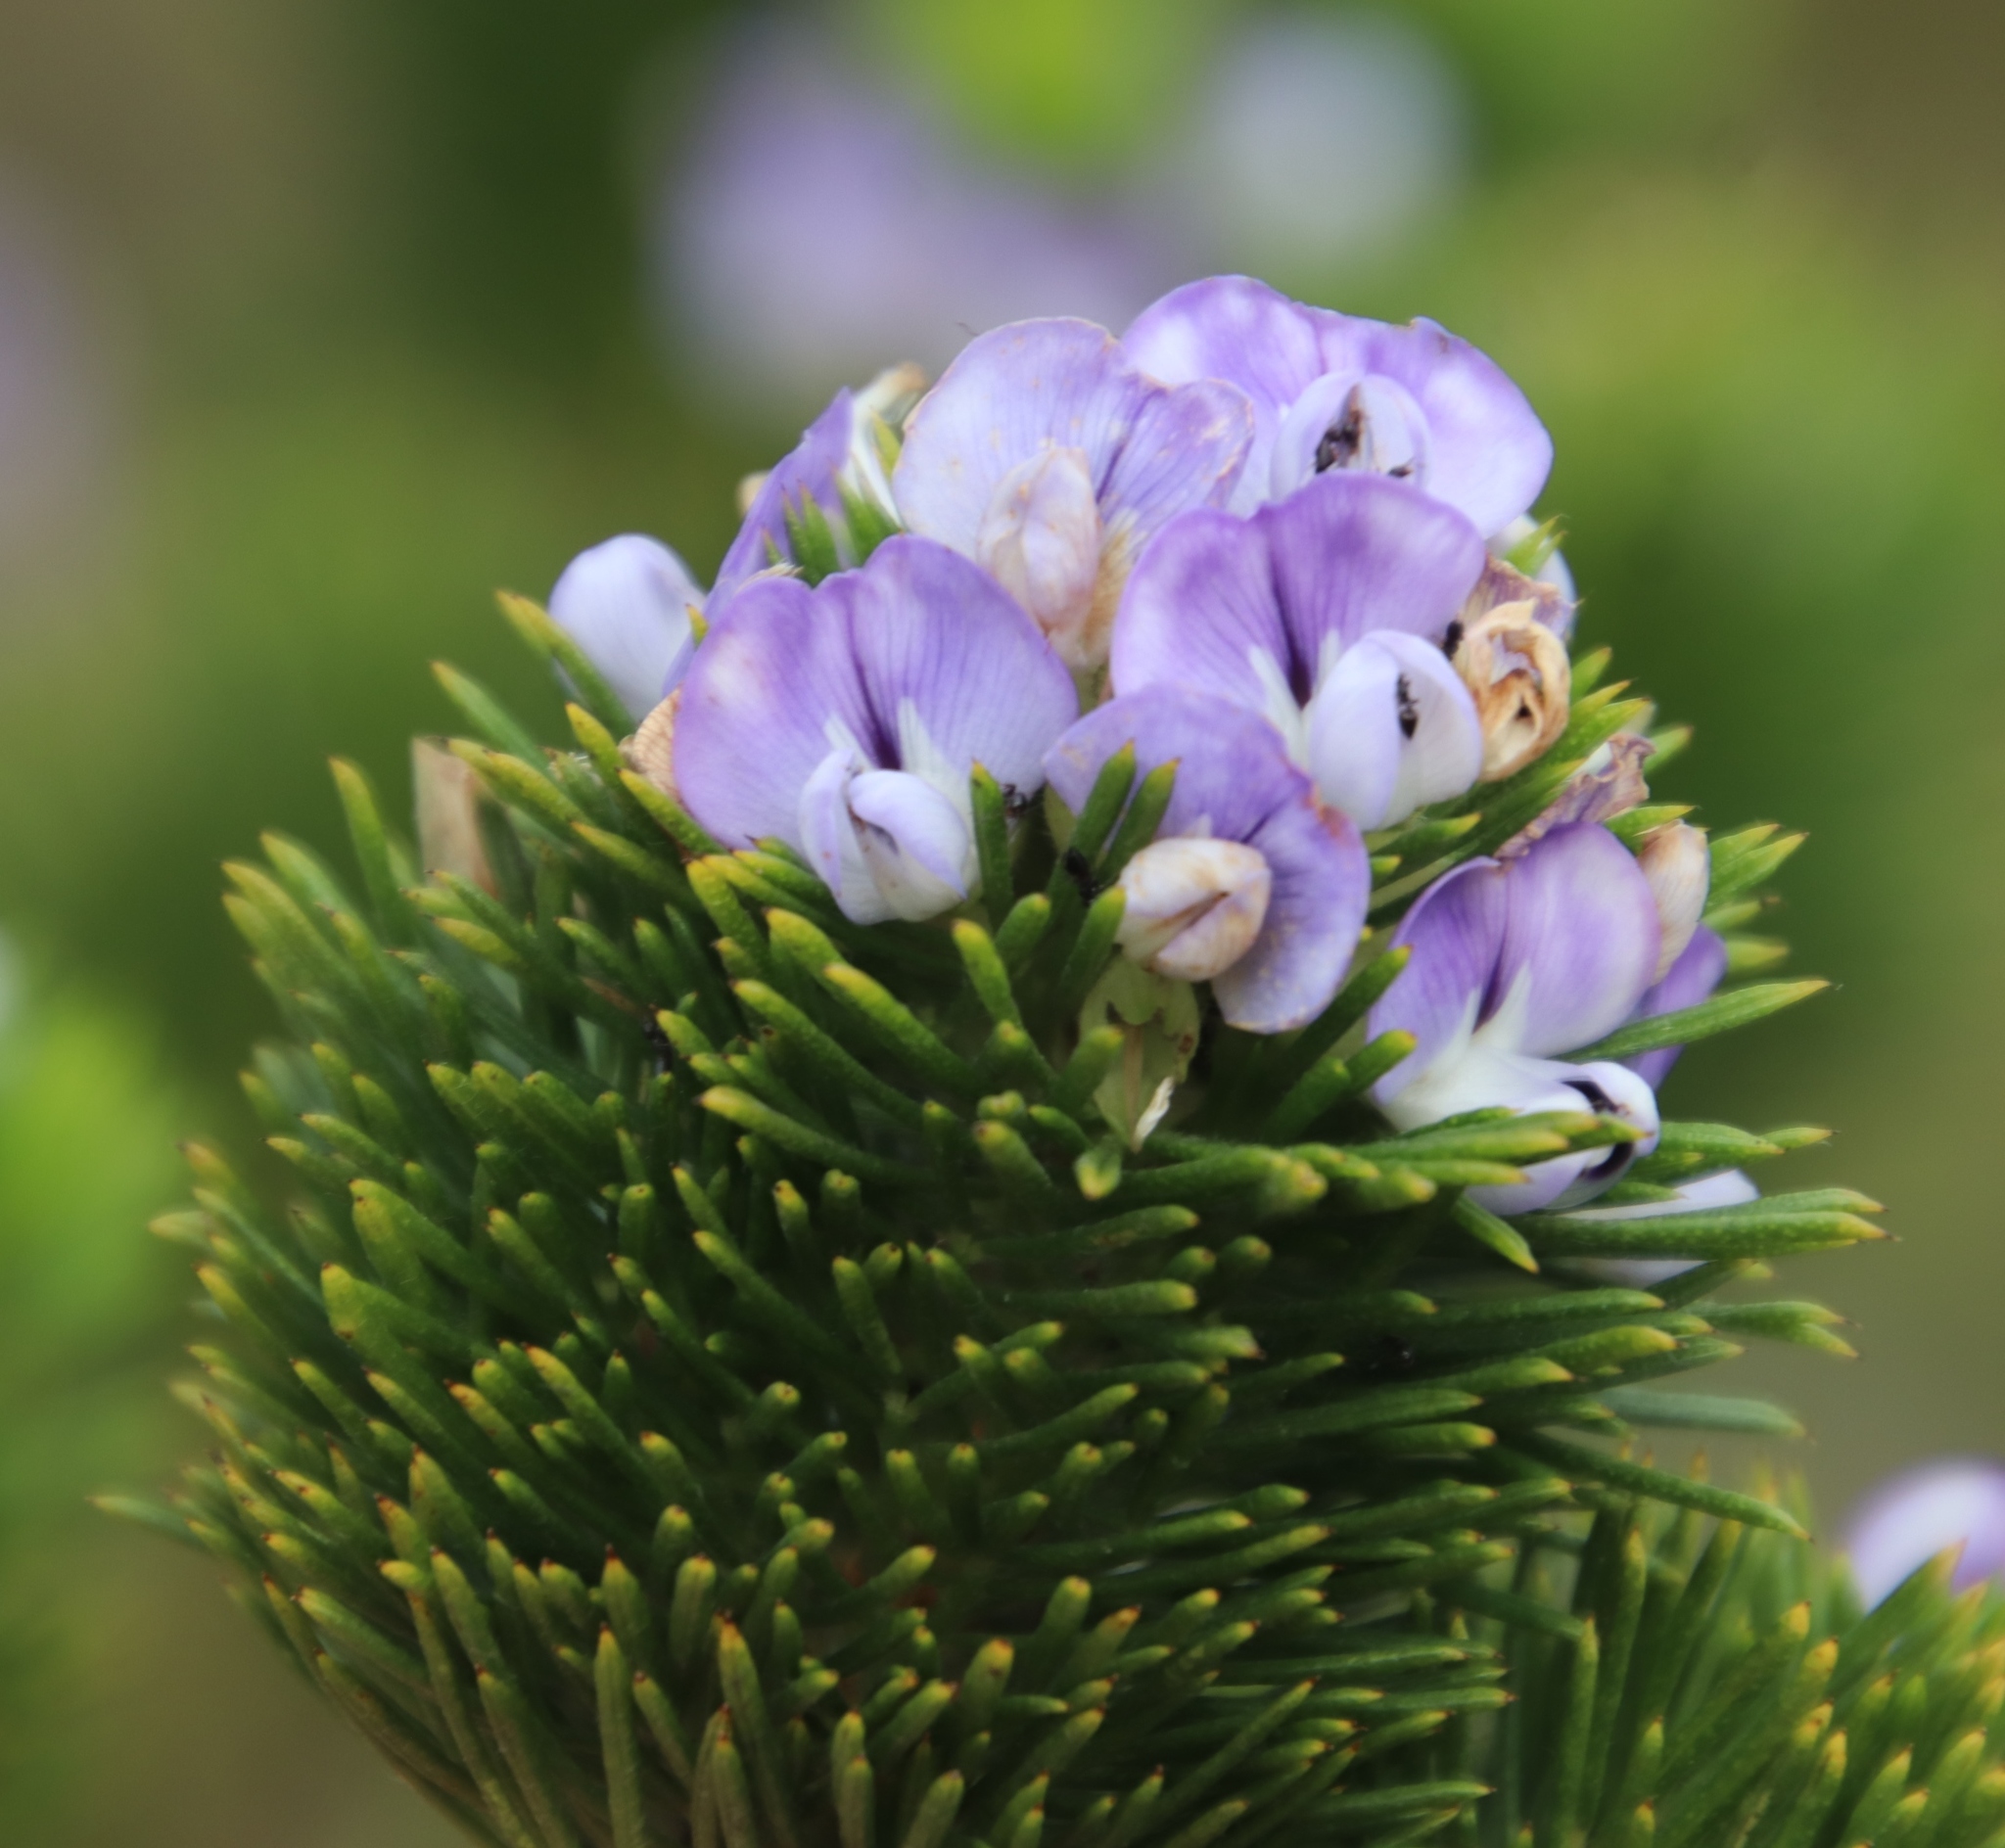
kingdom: Plantae
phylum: Tracheophyta
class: Magnoliopsida
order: Fabales
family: Fabaceae
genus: Psoralea
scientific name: Psoralea pinnata
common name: African scurfpea
